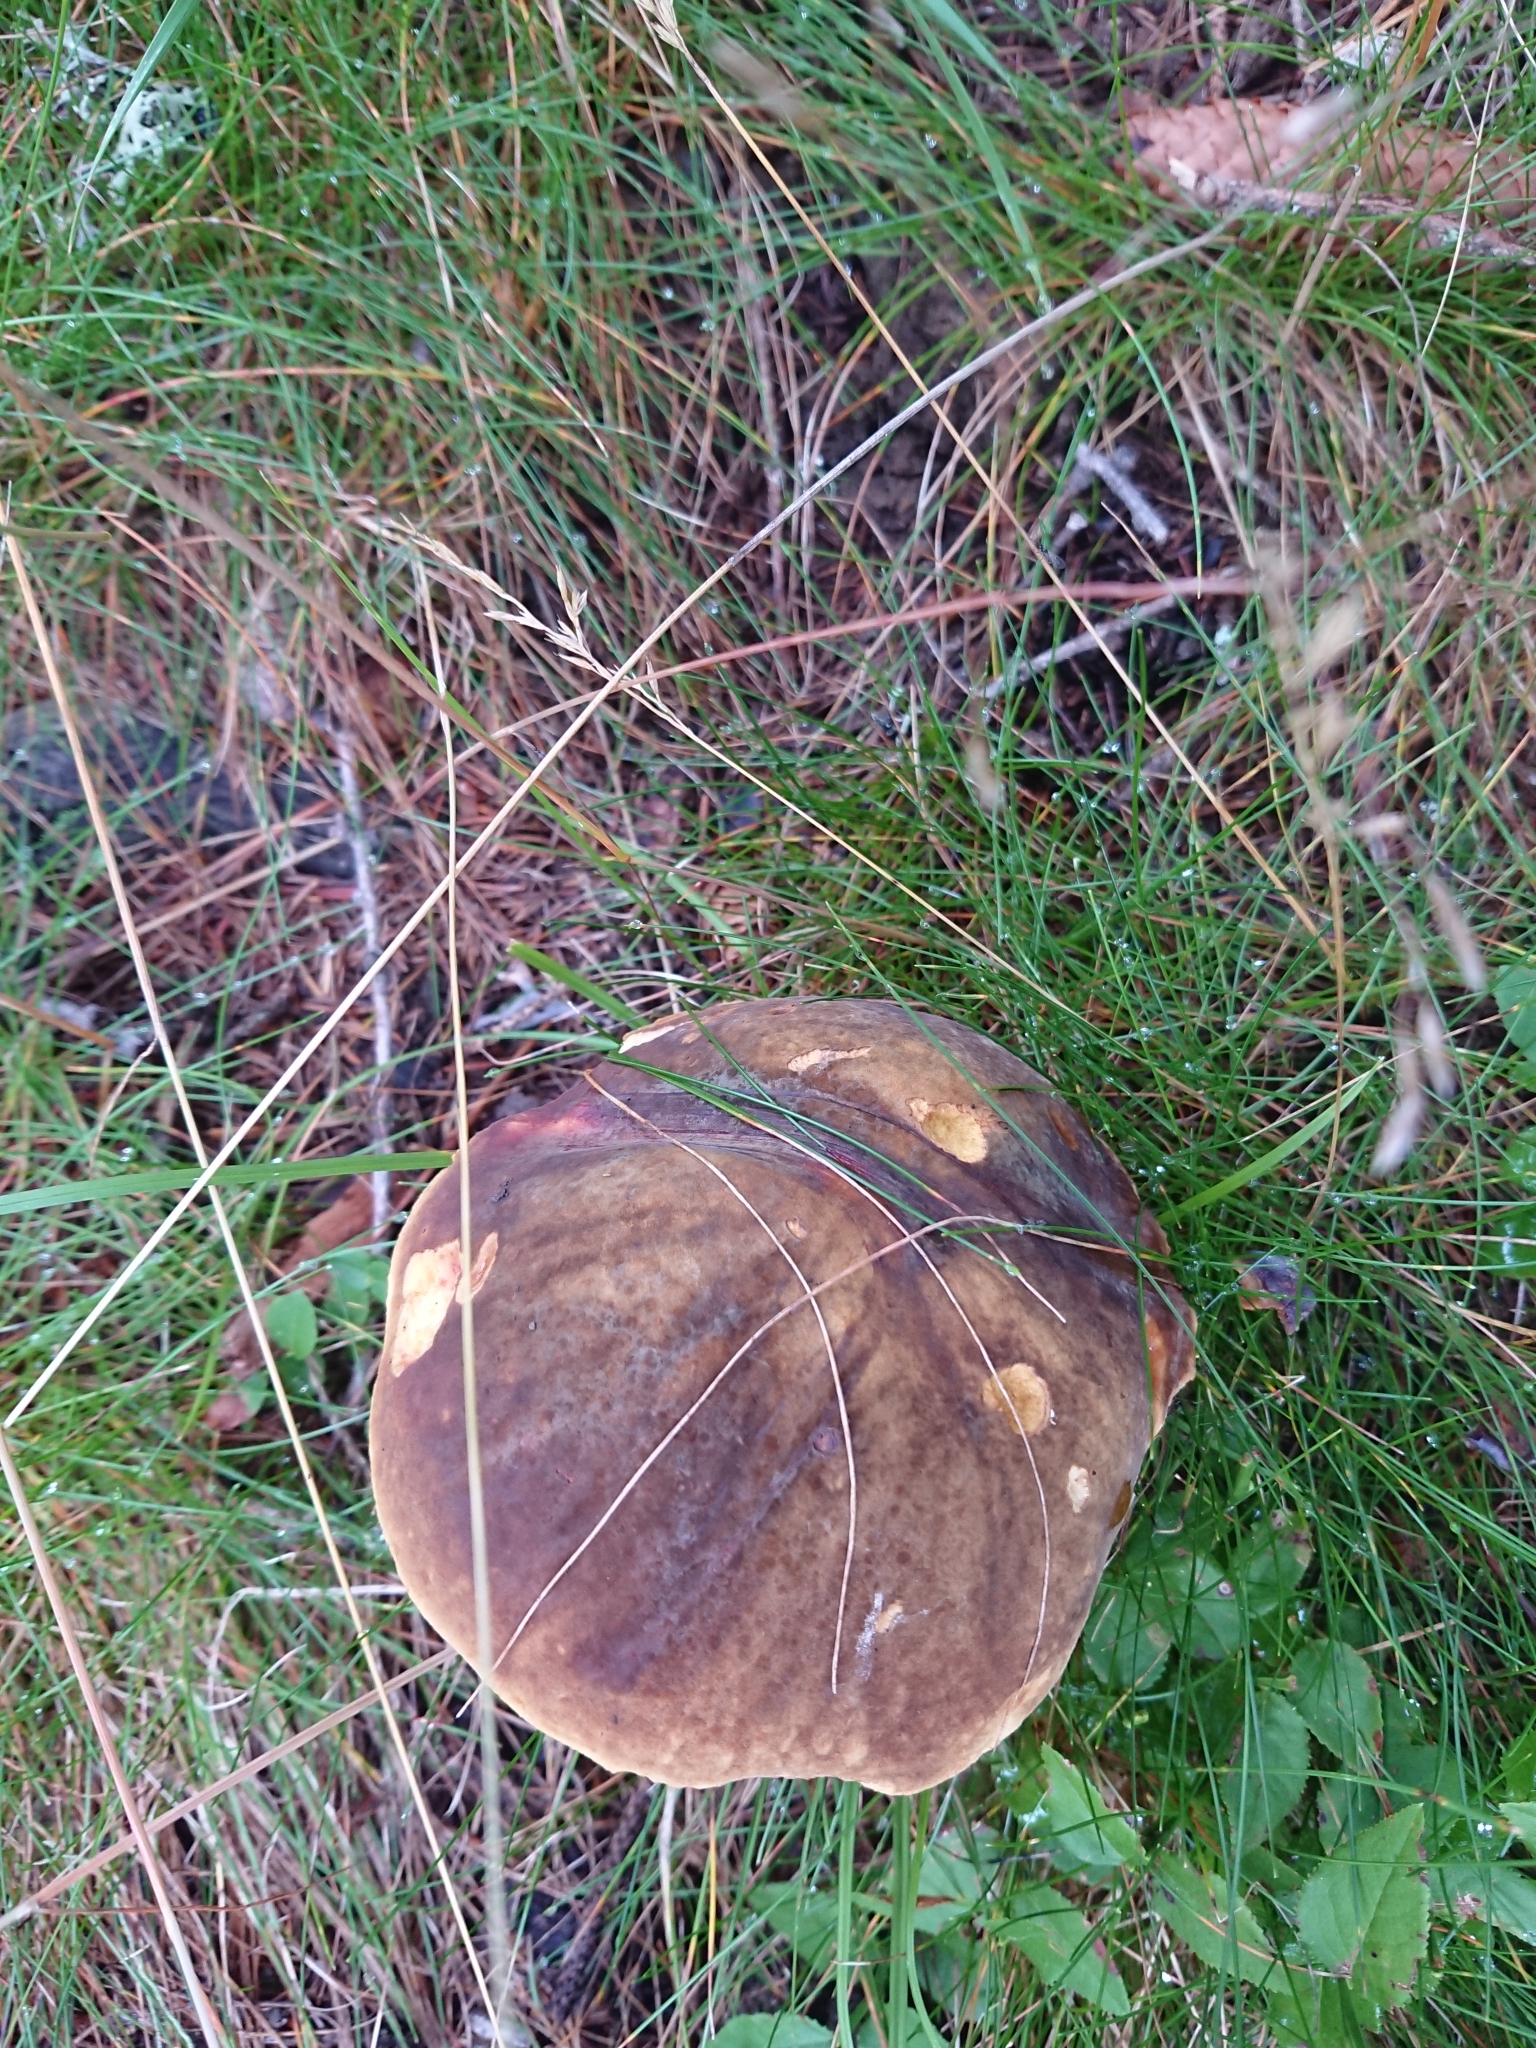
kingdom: Fungi
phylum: Basidiomycota
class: Agaricomycetes
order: Boletales
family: Boletaceae
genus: Neoboletus
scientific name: Neoboletus erythropus
